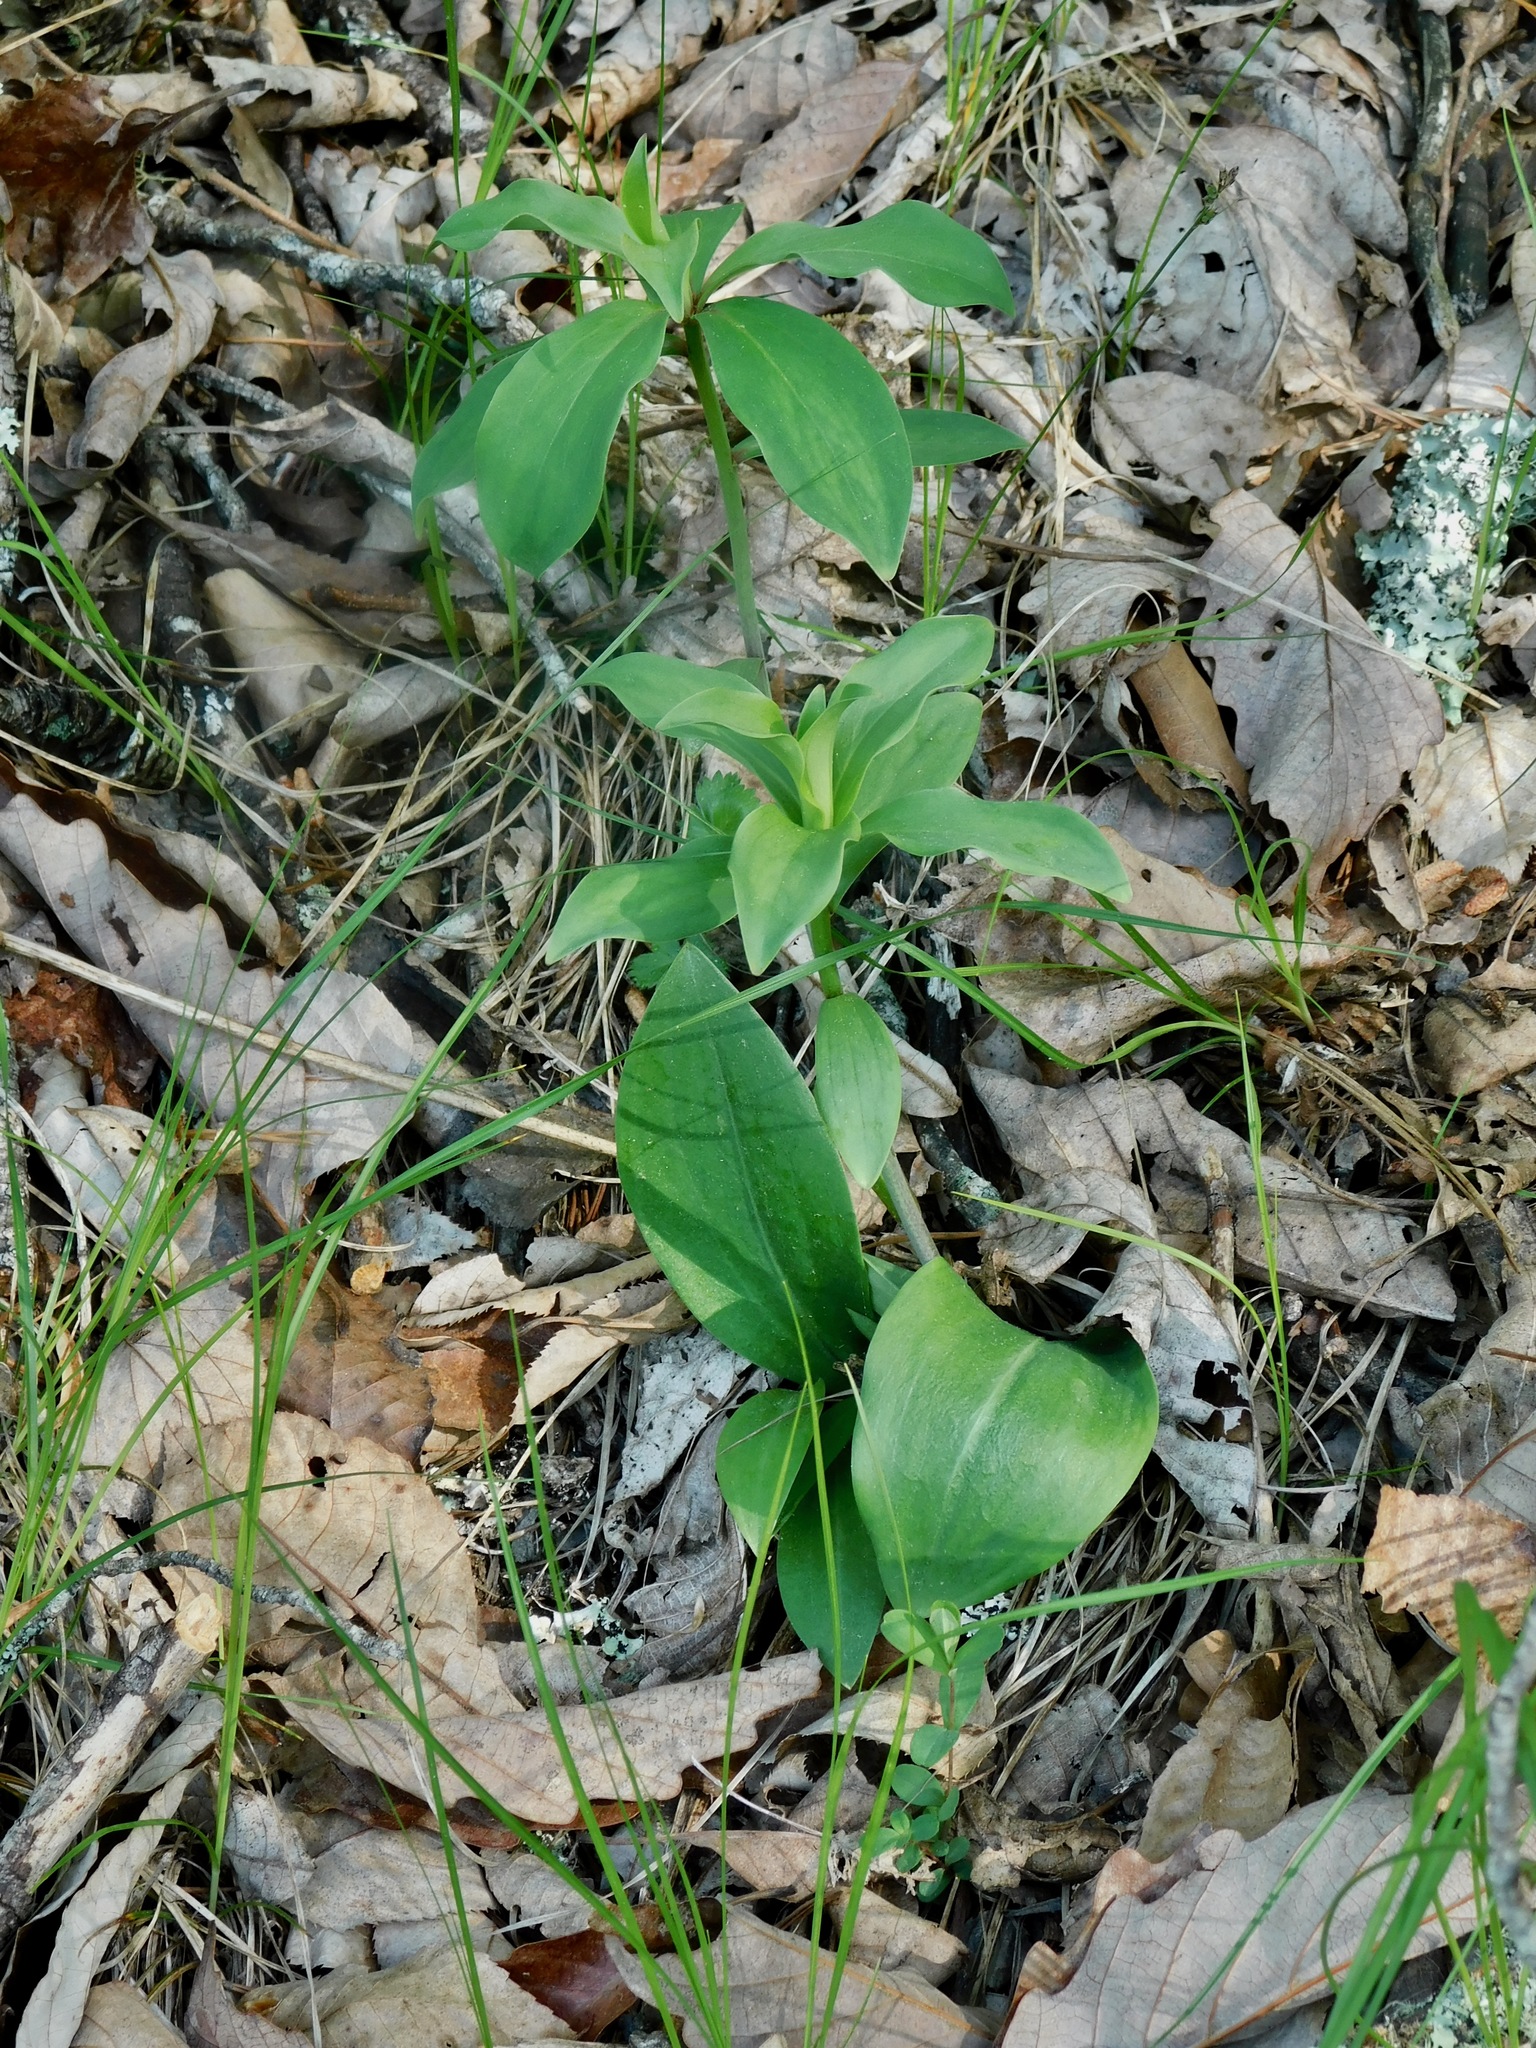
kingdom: Plantae
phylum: Tracheophyta
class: Liliopsida
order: Liliales
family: Liliaceae
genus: Lilium
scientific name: Lilium michauxii
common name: Carolina lily
